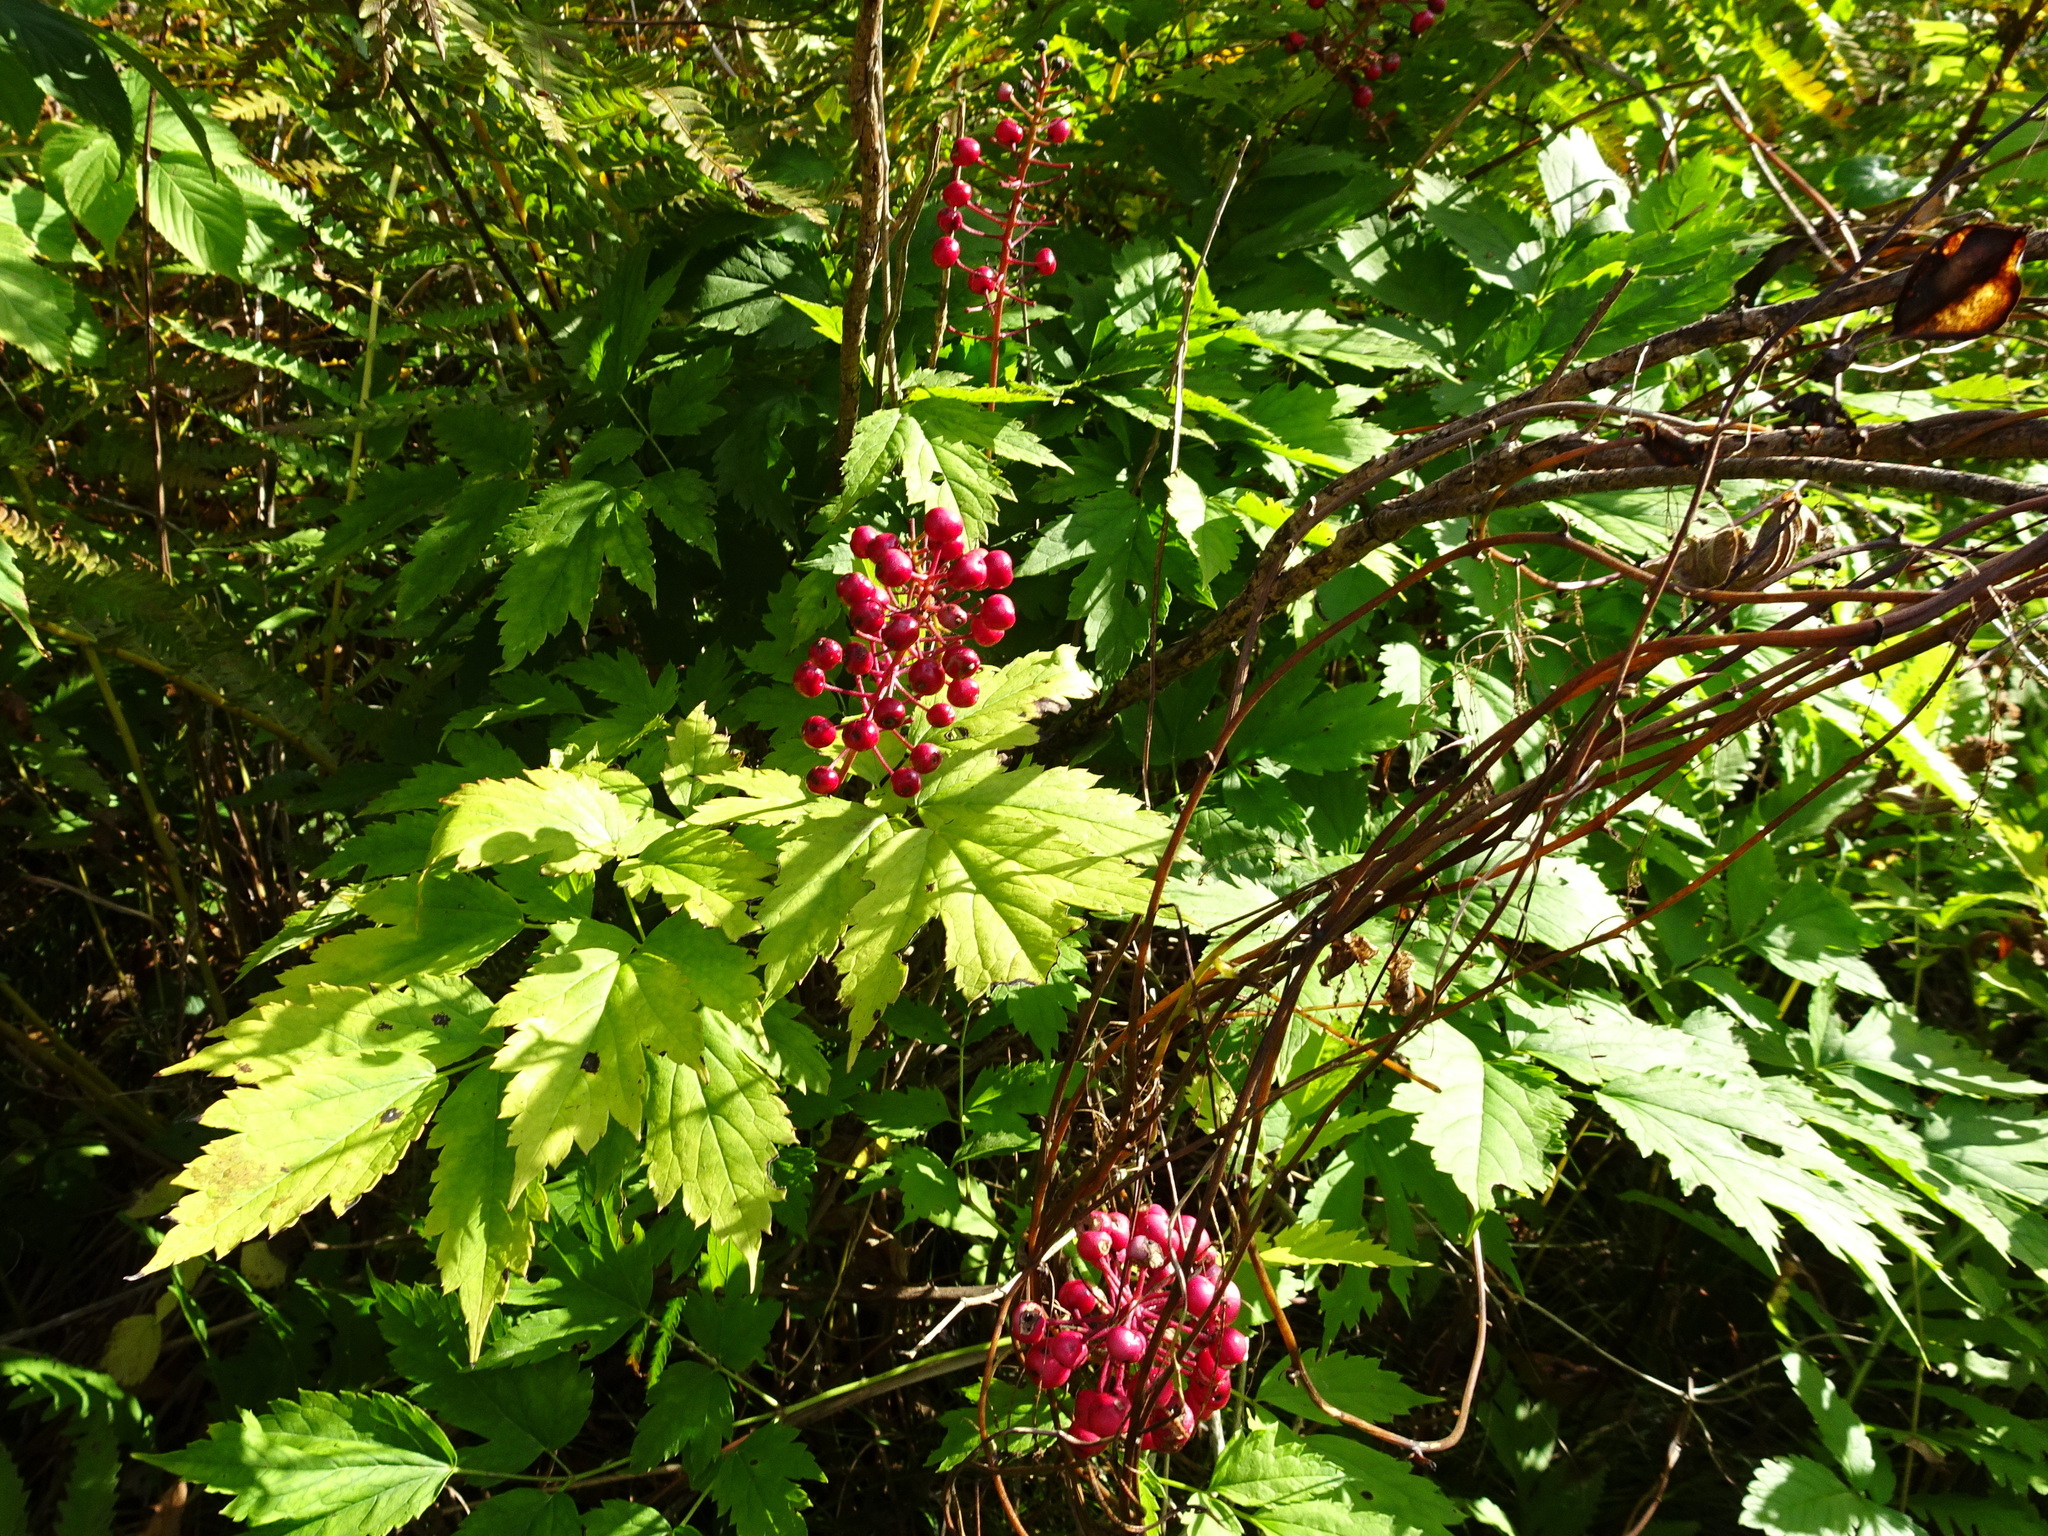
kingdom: Plantae
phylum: Tracheophyta
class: Magnoliopsida
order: Ranunculales
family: Ranunculaceae
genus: Actaea
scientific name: Actaea rubra
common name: Red baneberry
